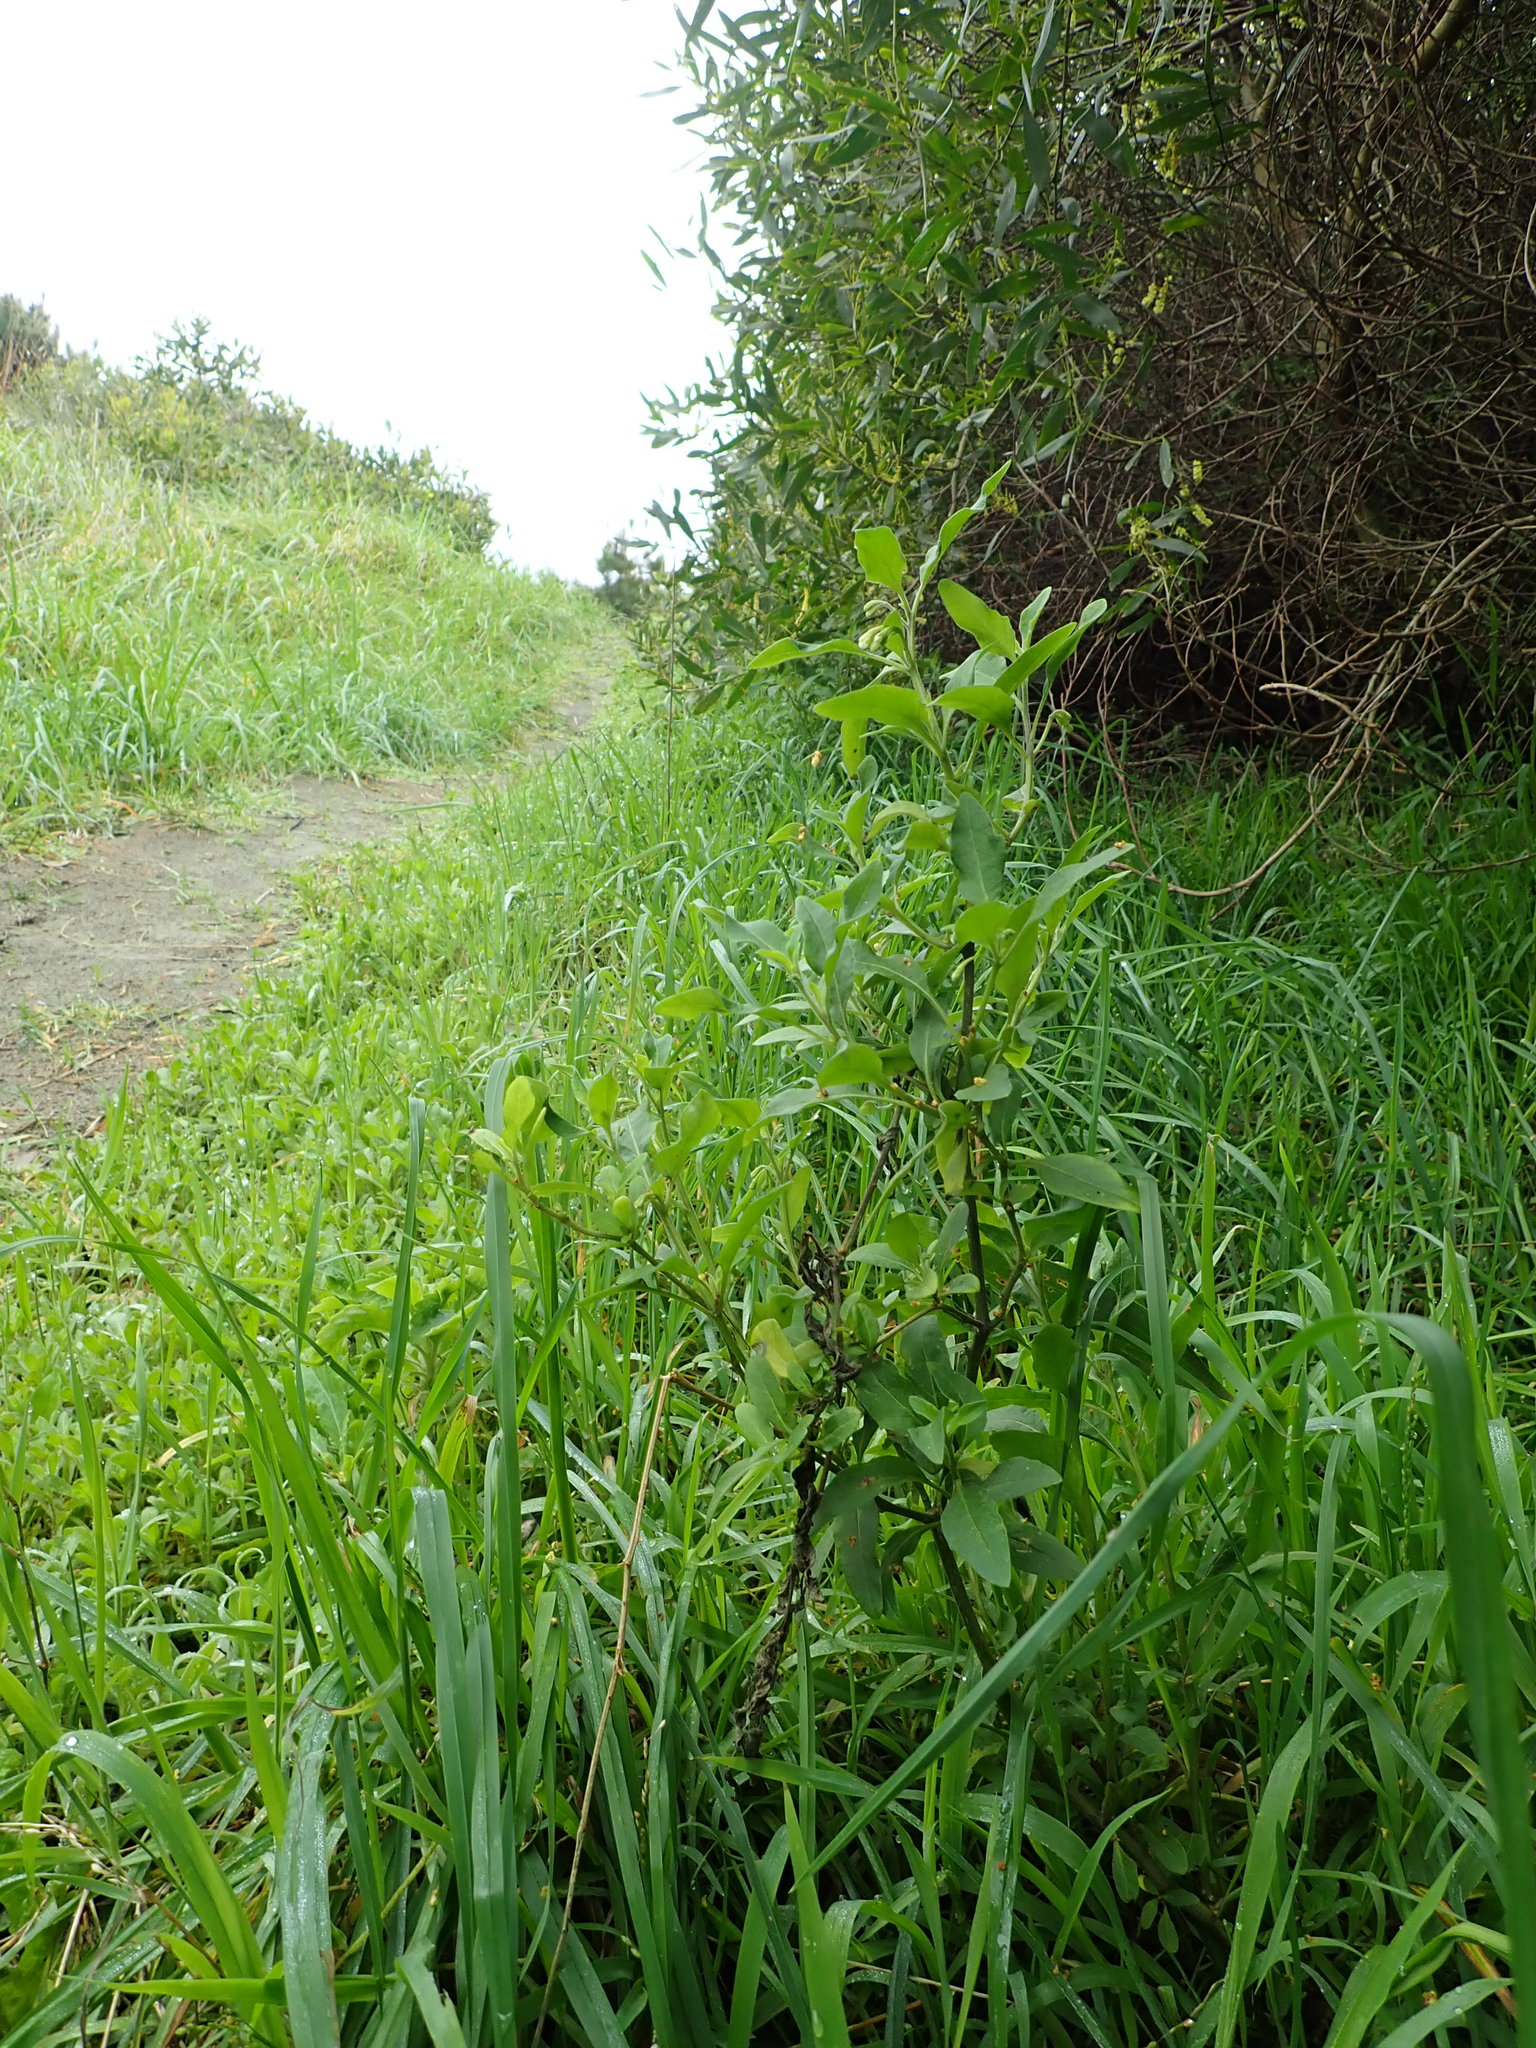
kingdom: Plantae
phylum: Tracheophyta
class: Magnoliopsida
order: Solanales
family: Solanaceae
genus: Solanum
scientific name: Solanum chenopodioides
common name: Tall nightshade
